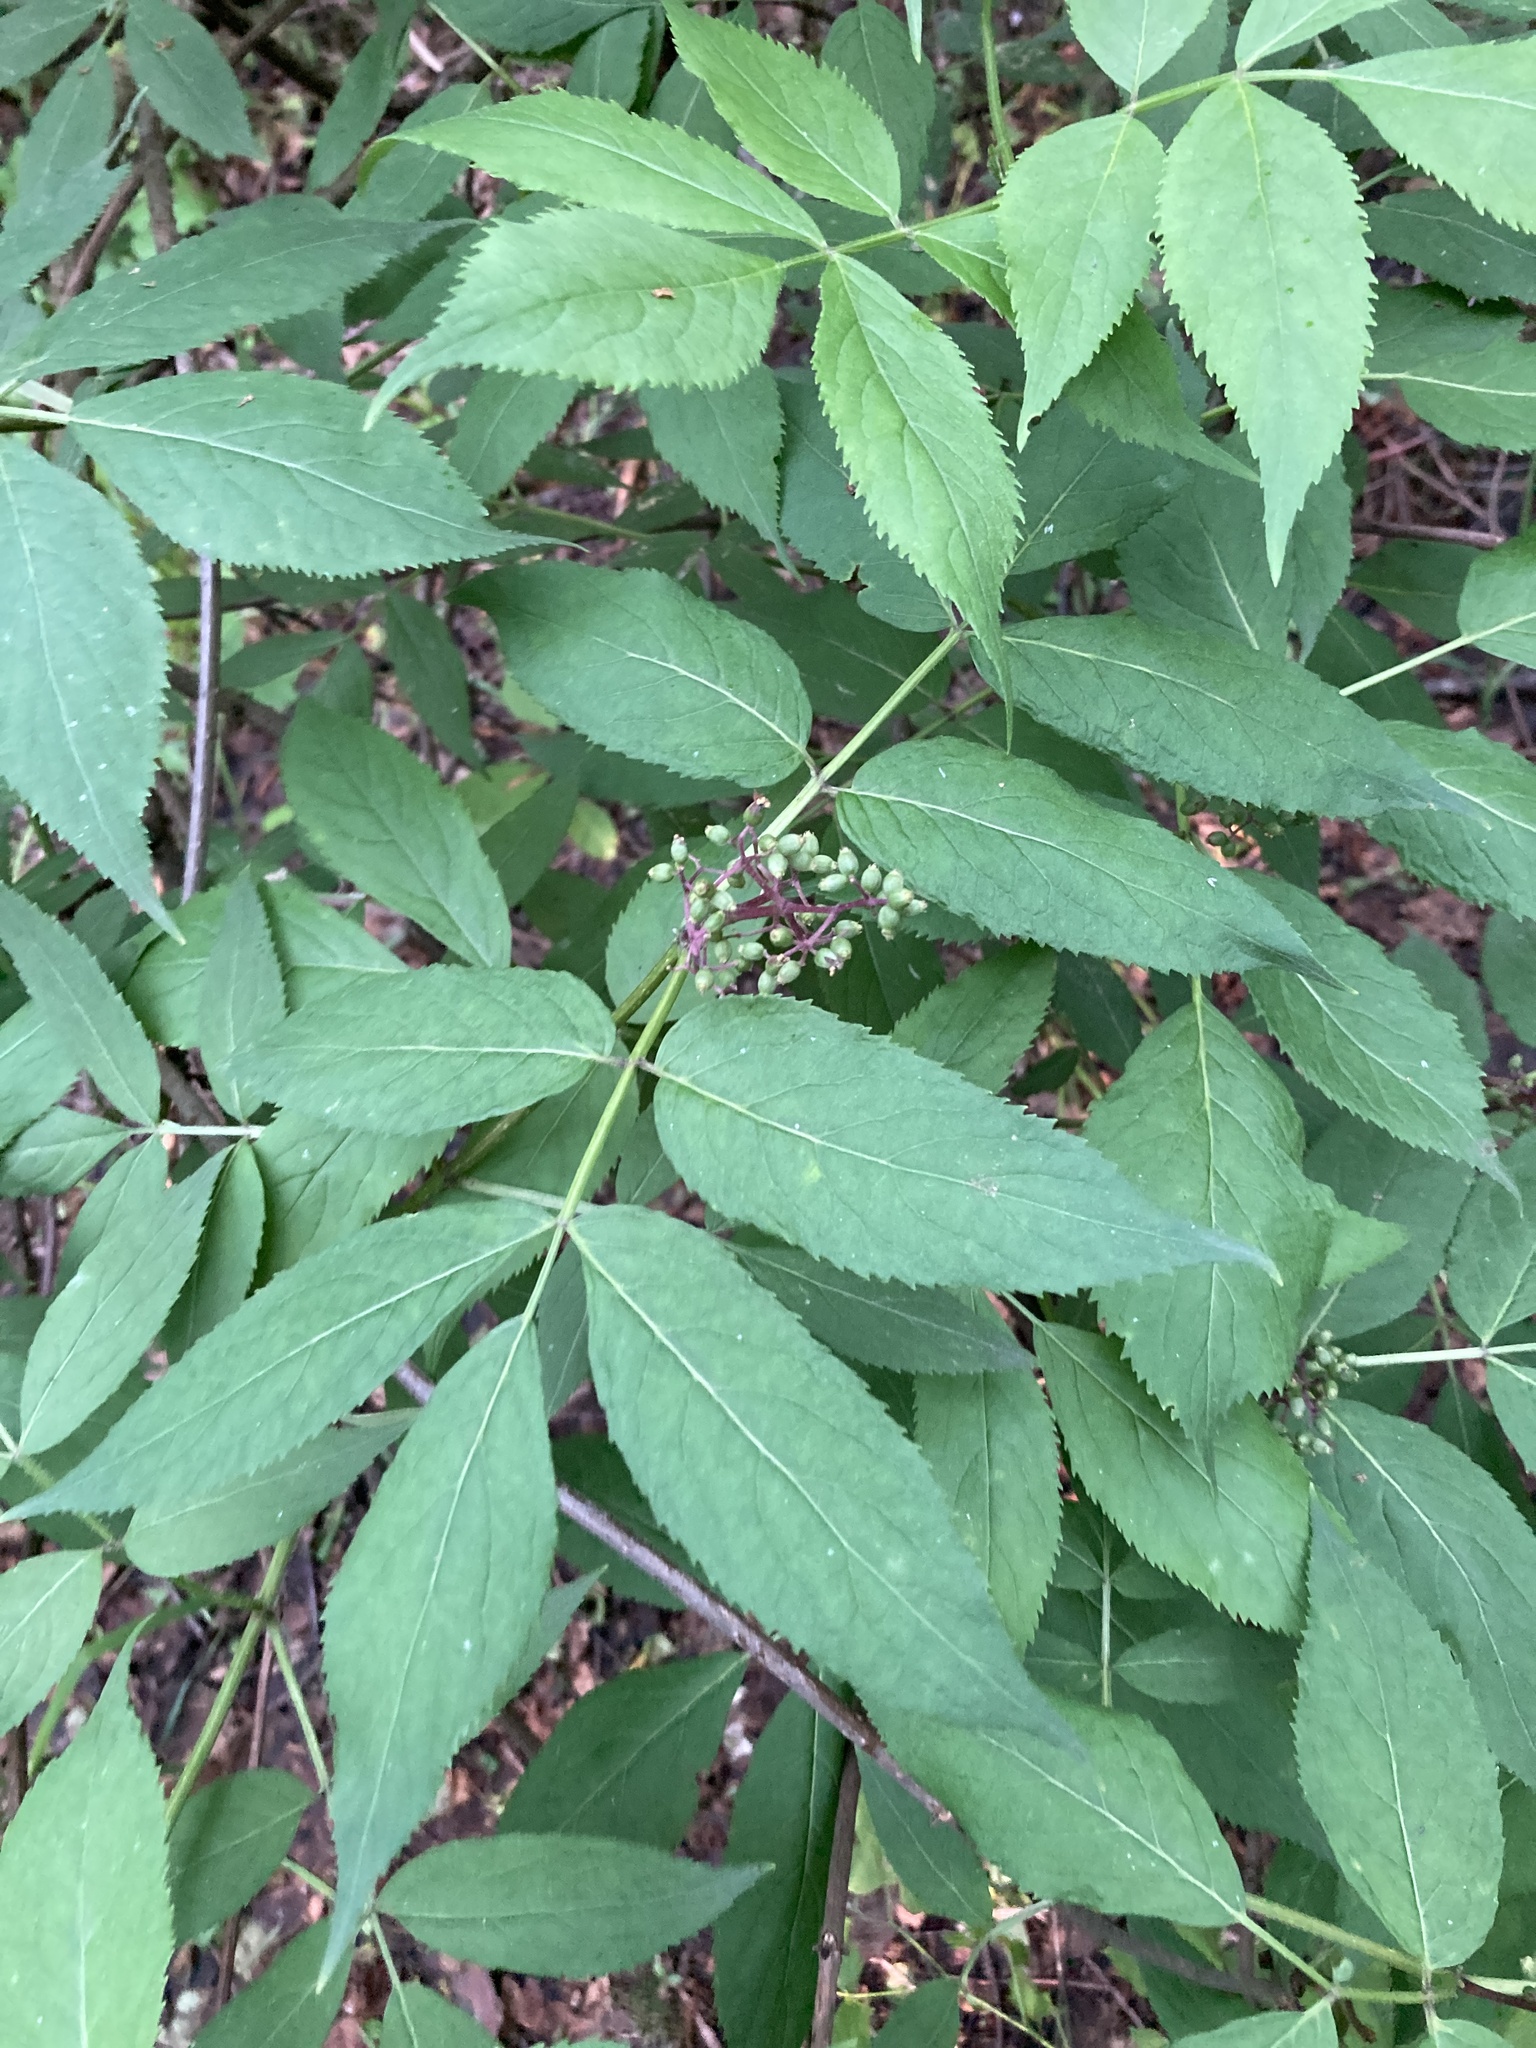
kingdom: Plantae
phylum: Tracheophyta
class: Magnoliopsida
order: Dipsacales
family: Viburnaceae
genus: Sambucus
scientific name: Sambucus racemosa
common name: Red-berried elder
